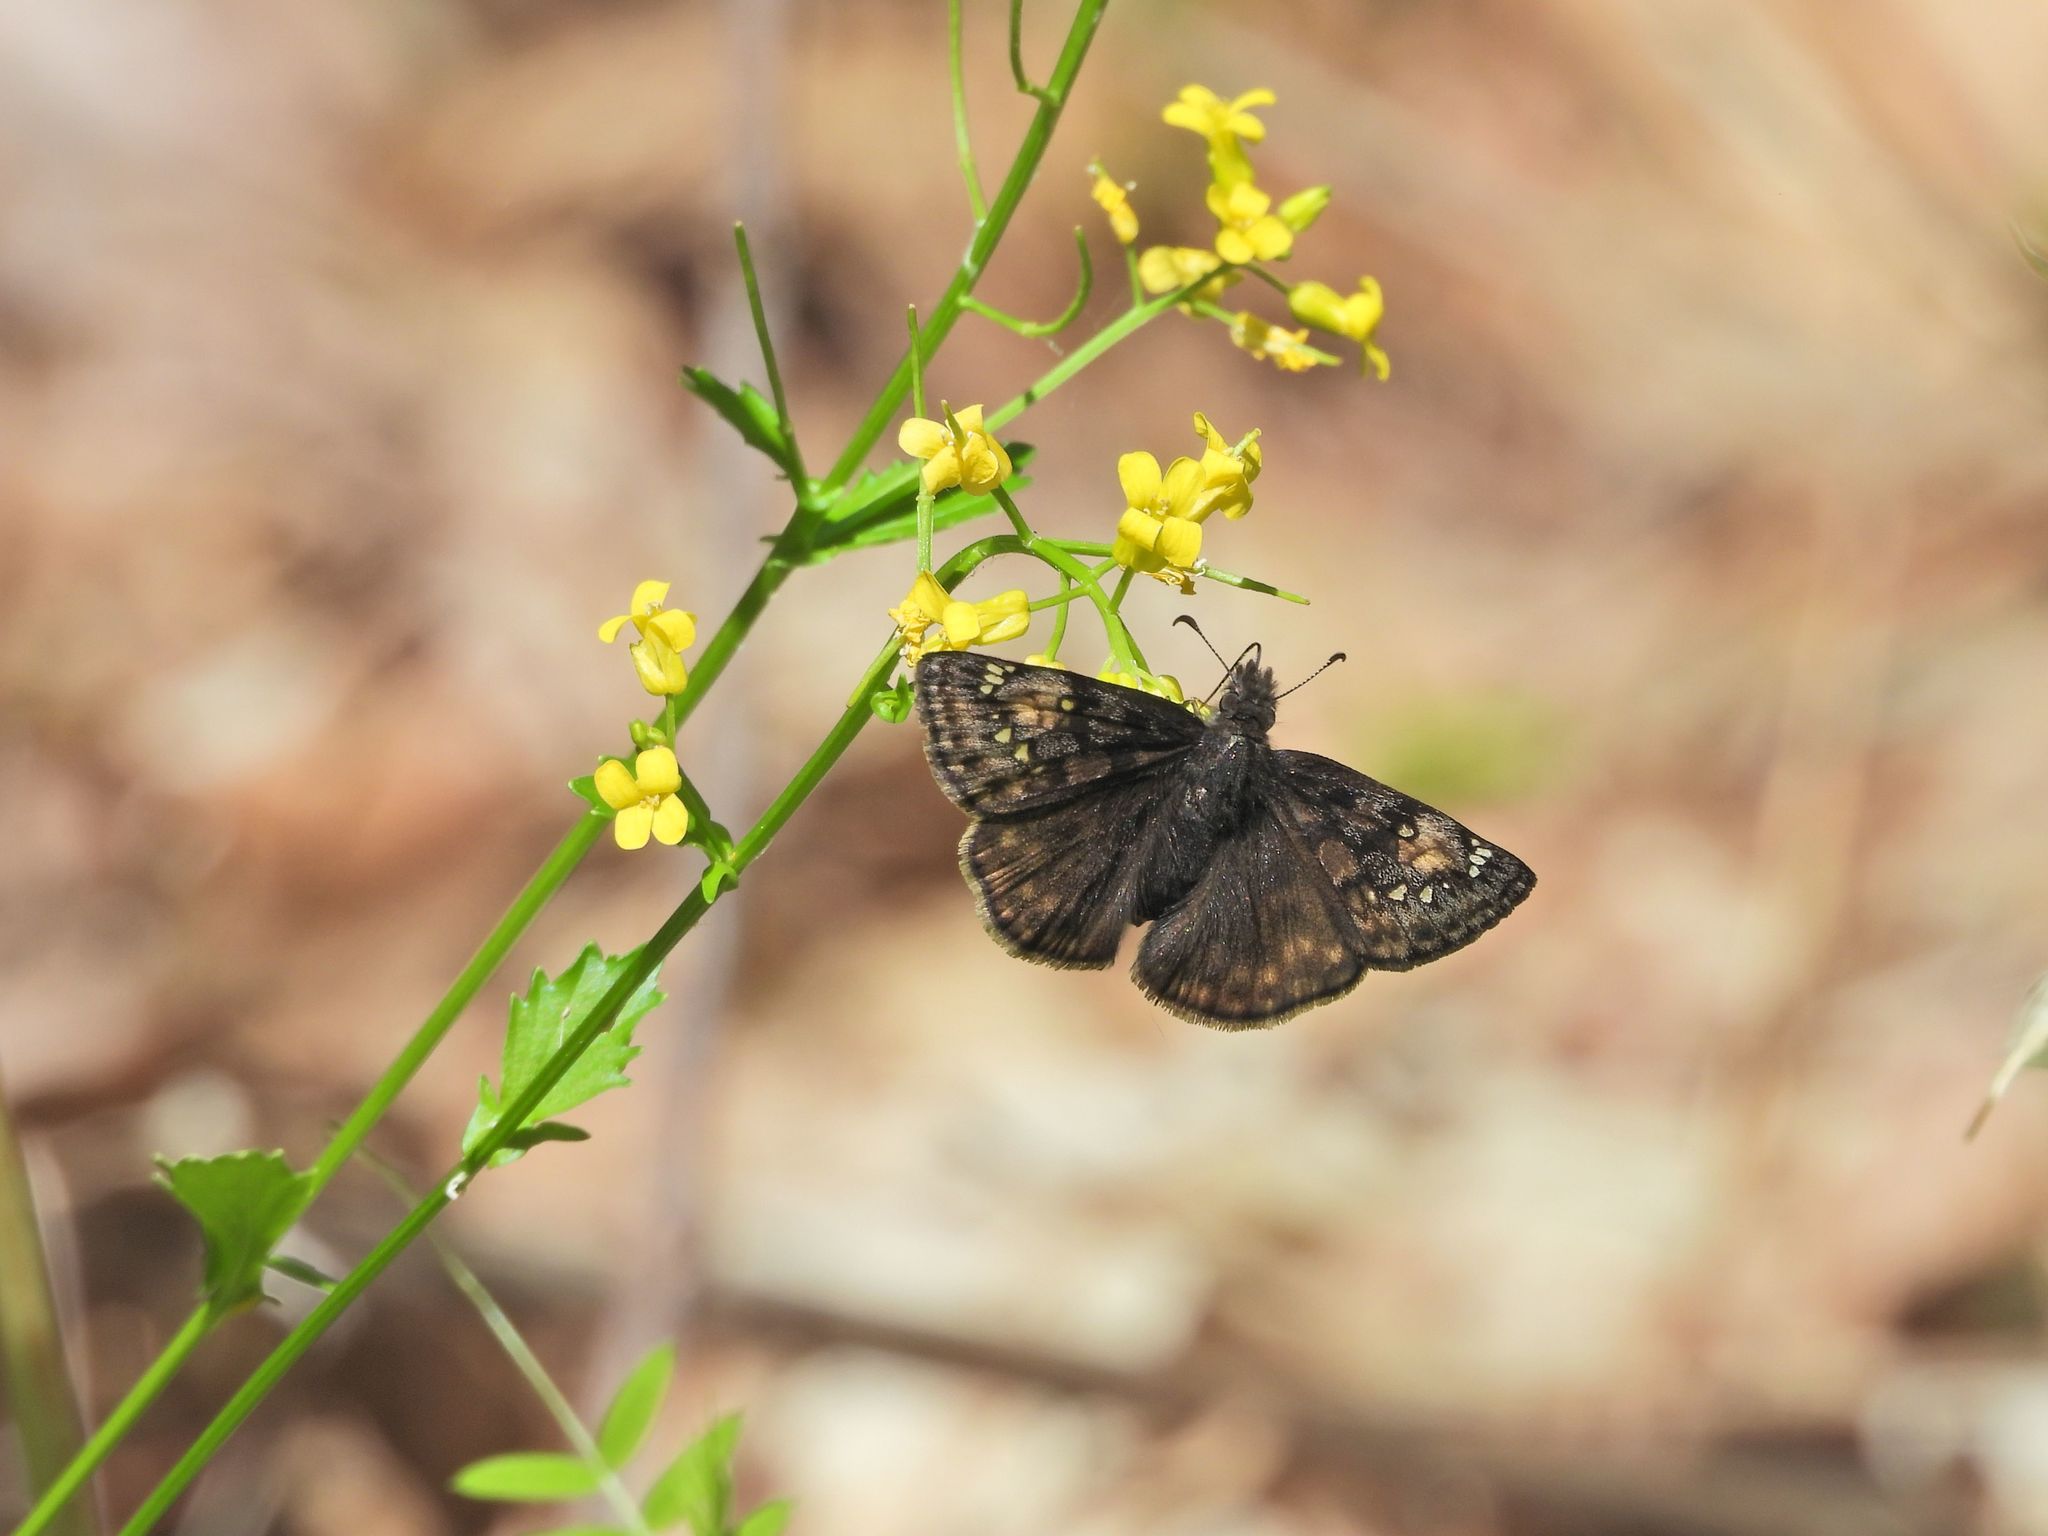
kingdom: Animalia
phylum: Arthropoda
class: Insecta
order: Lepidoptera
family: Hesperiidae
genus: Erynnis
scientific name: Erynnis juvenalis
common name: Juvenal's duskywing
